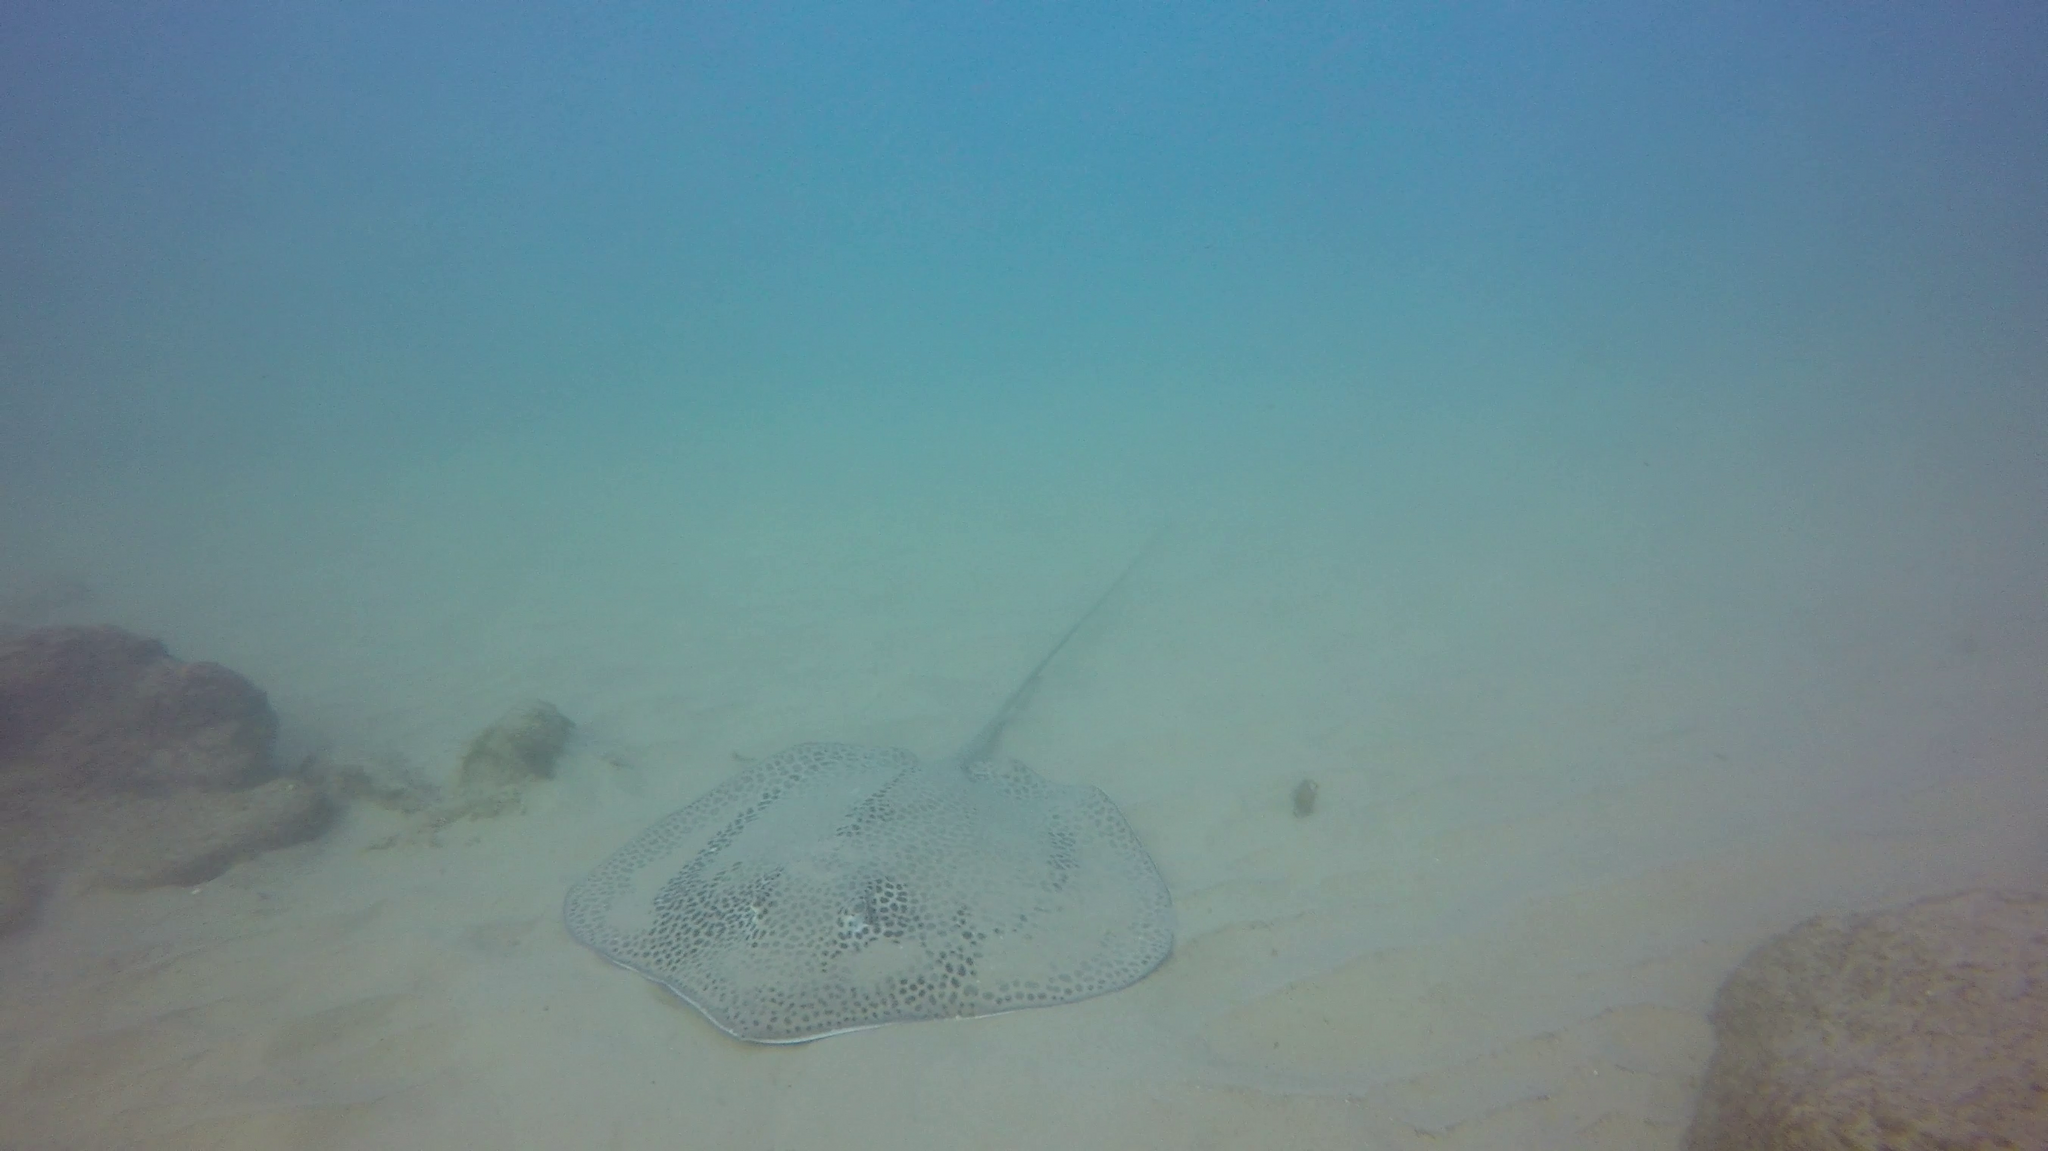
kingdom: Animalia
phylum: Chordata
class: Elasmobranchii
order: Myliobatiformes
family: Dasyatidae
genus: Himantura
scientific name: Himantura uarnak
